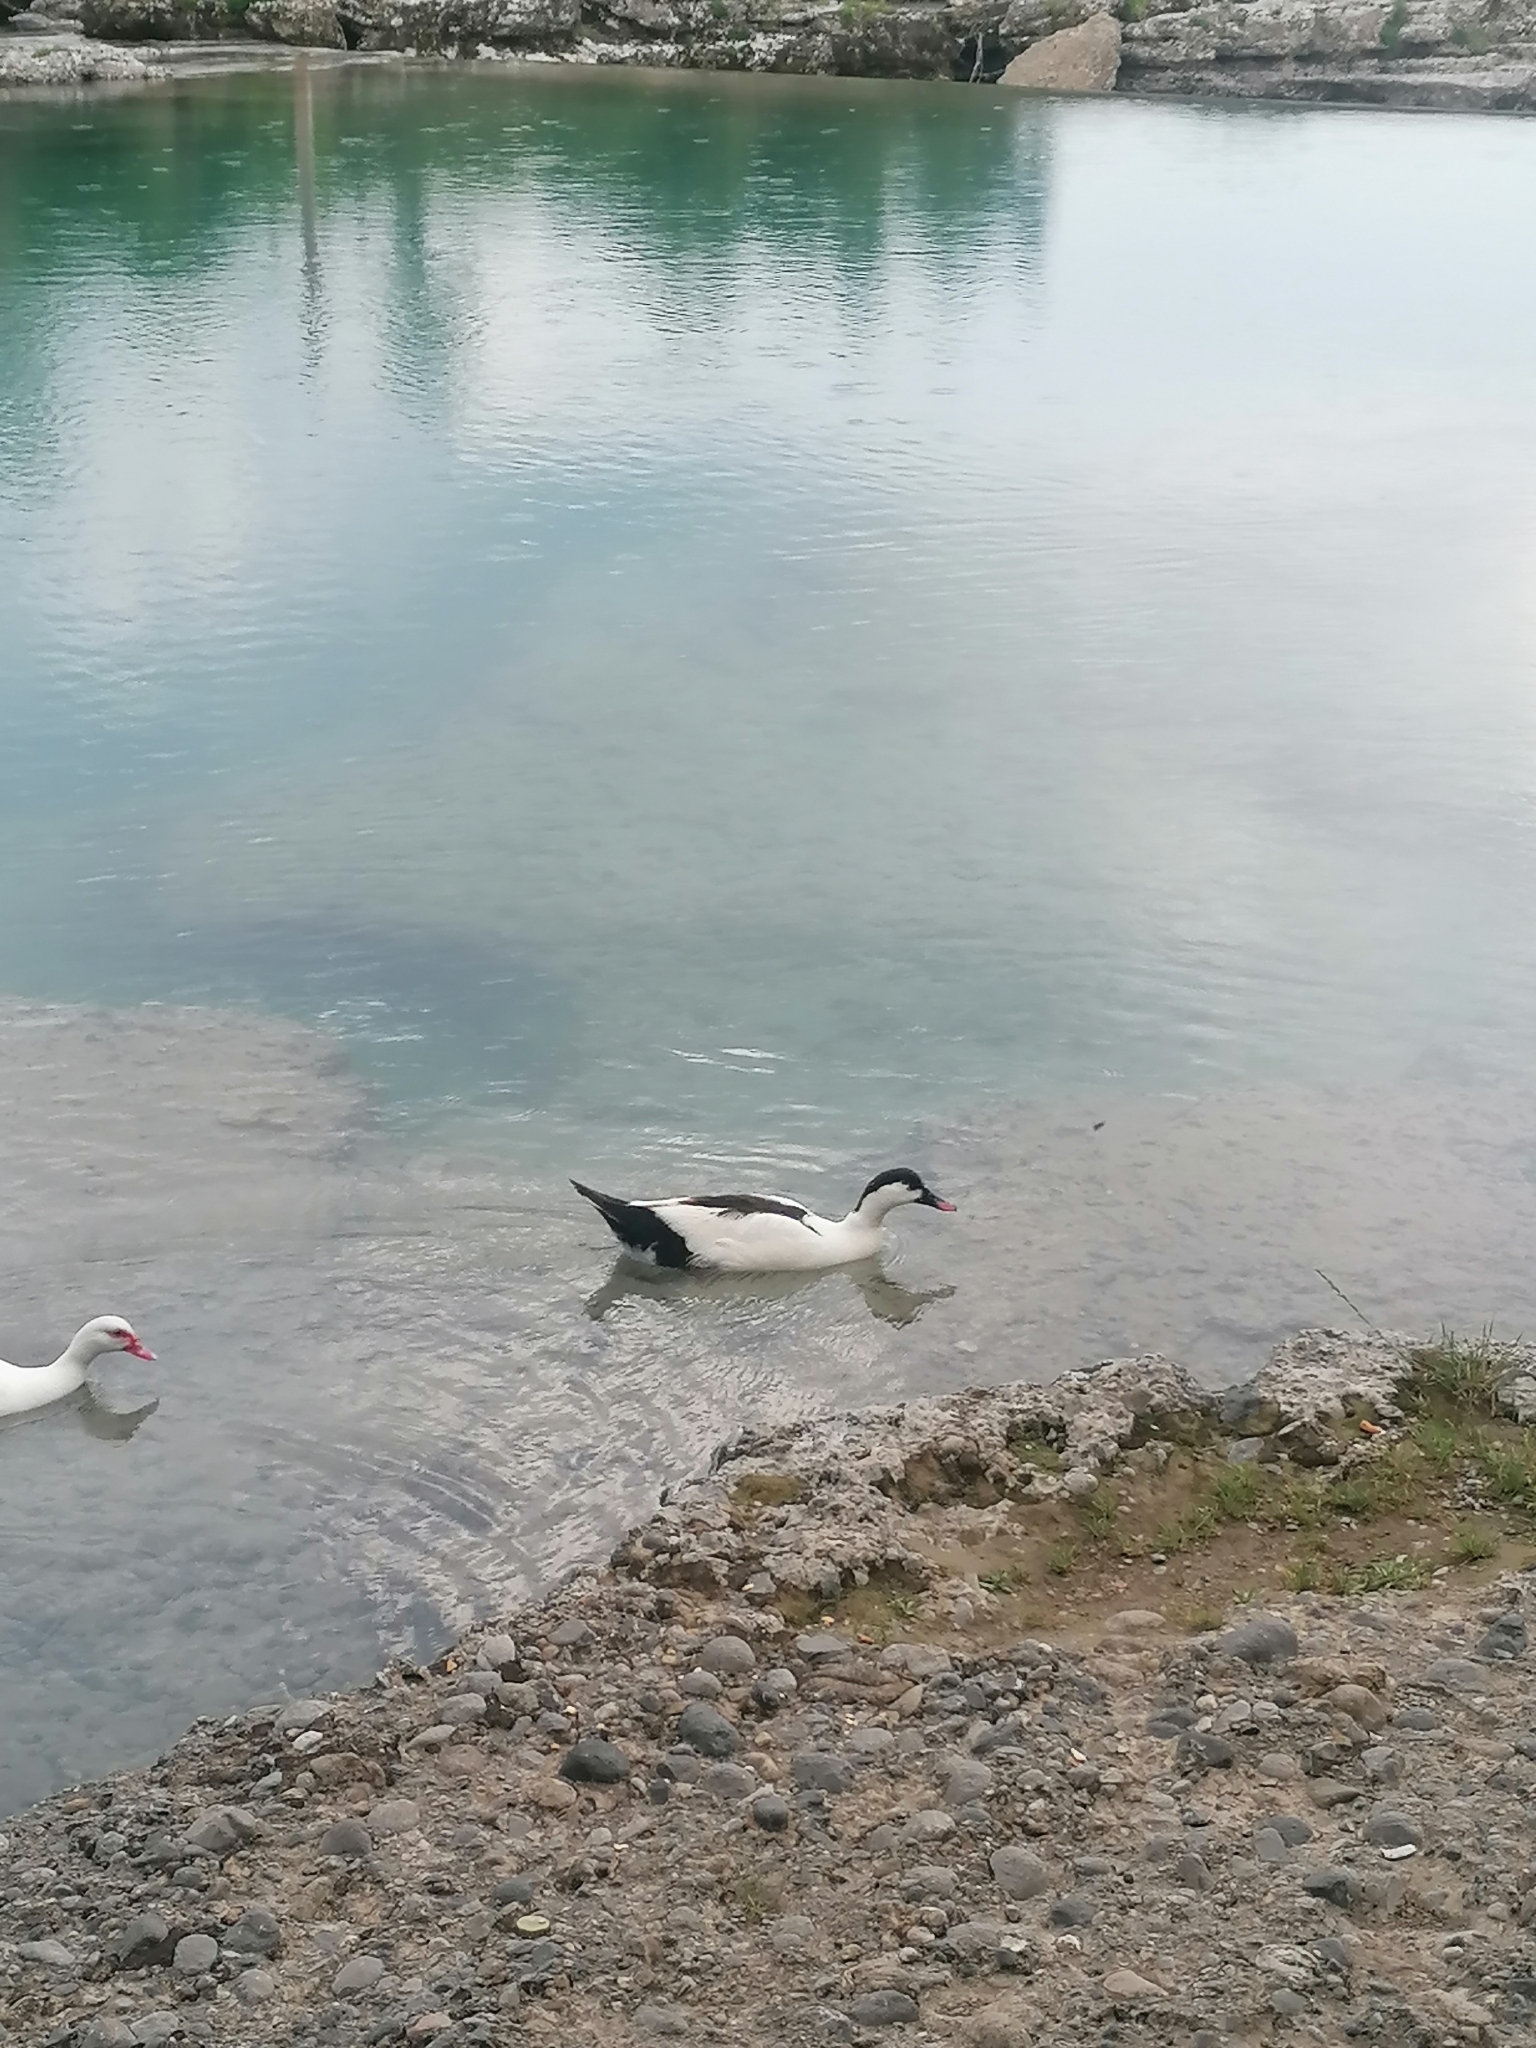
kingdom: Animalia
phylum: Chordata
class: Aves
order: Anseriformes
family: Anatidae
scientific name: Anatidae
